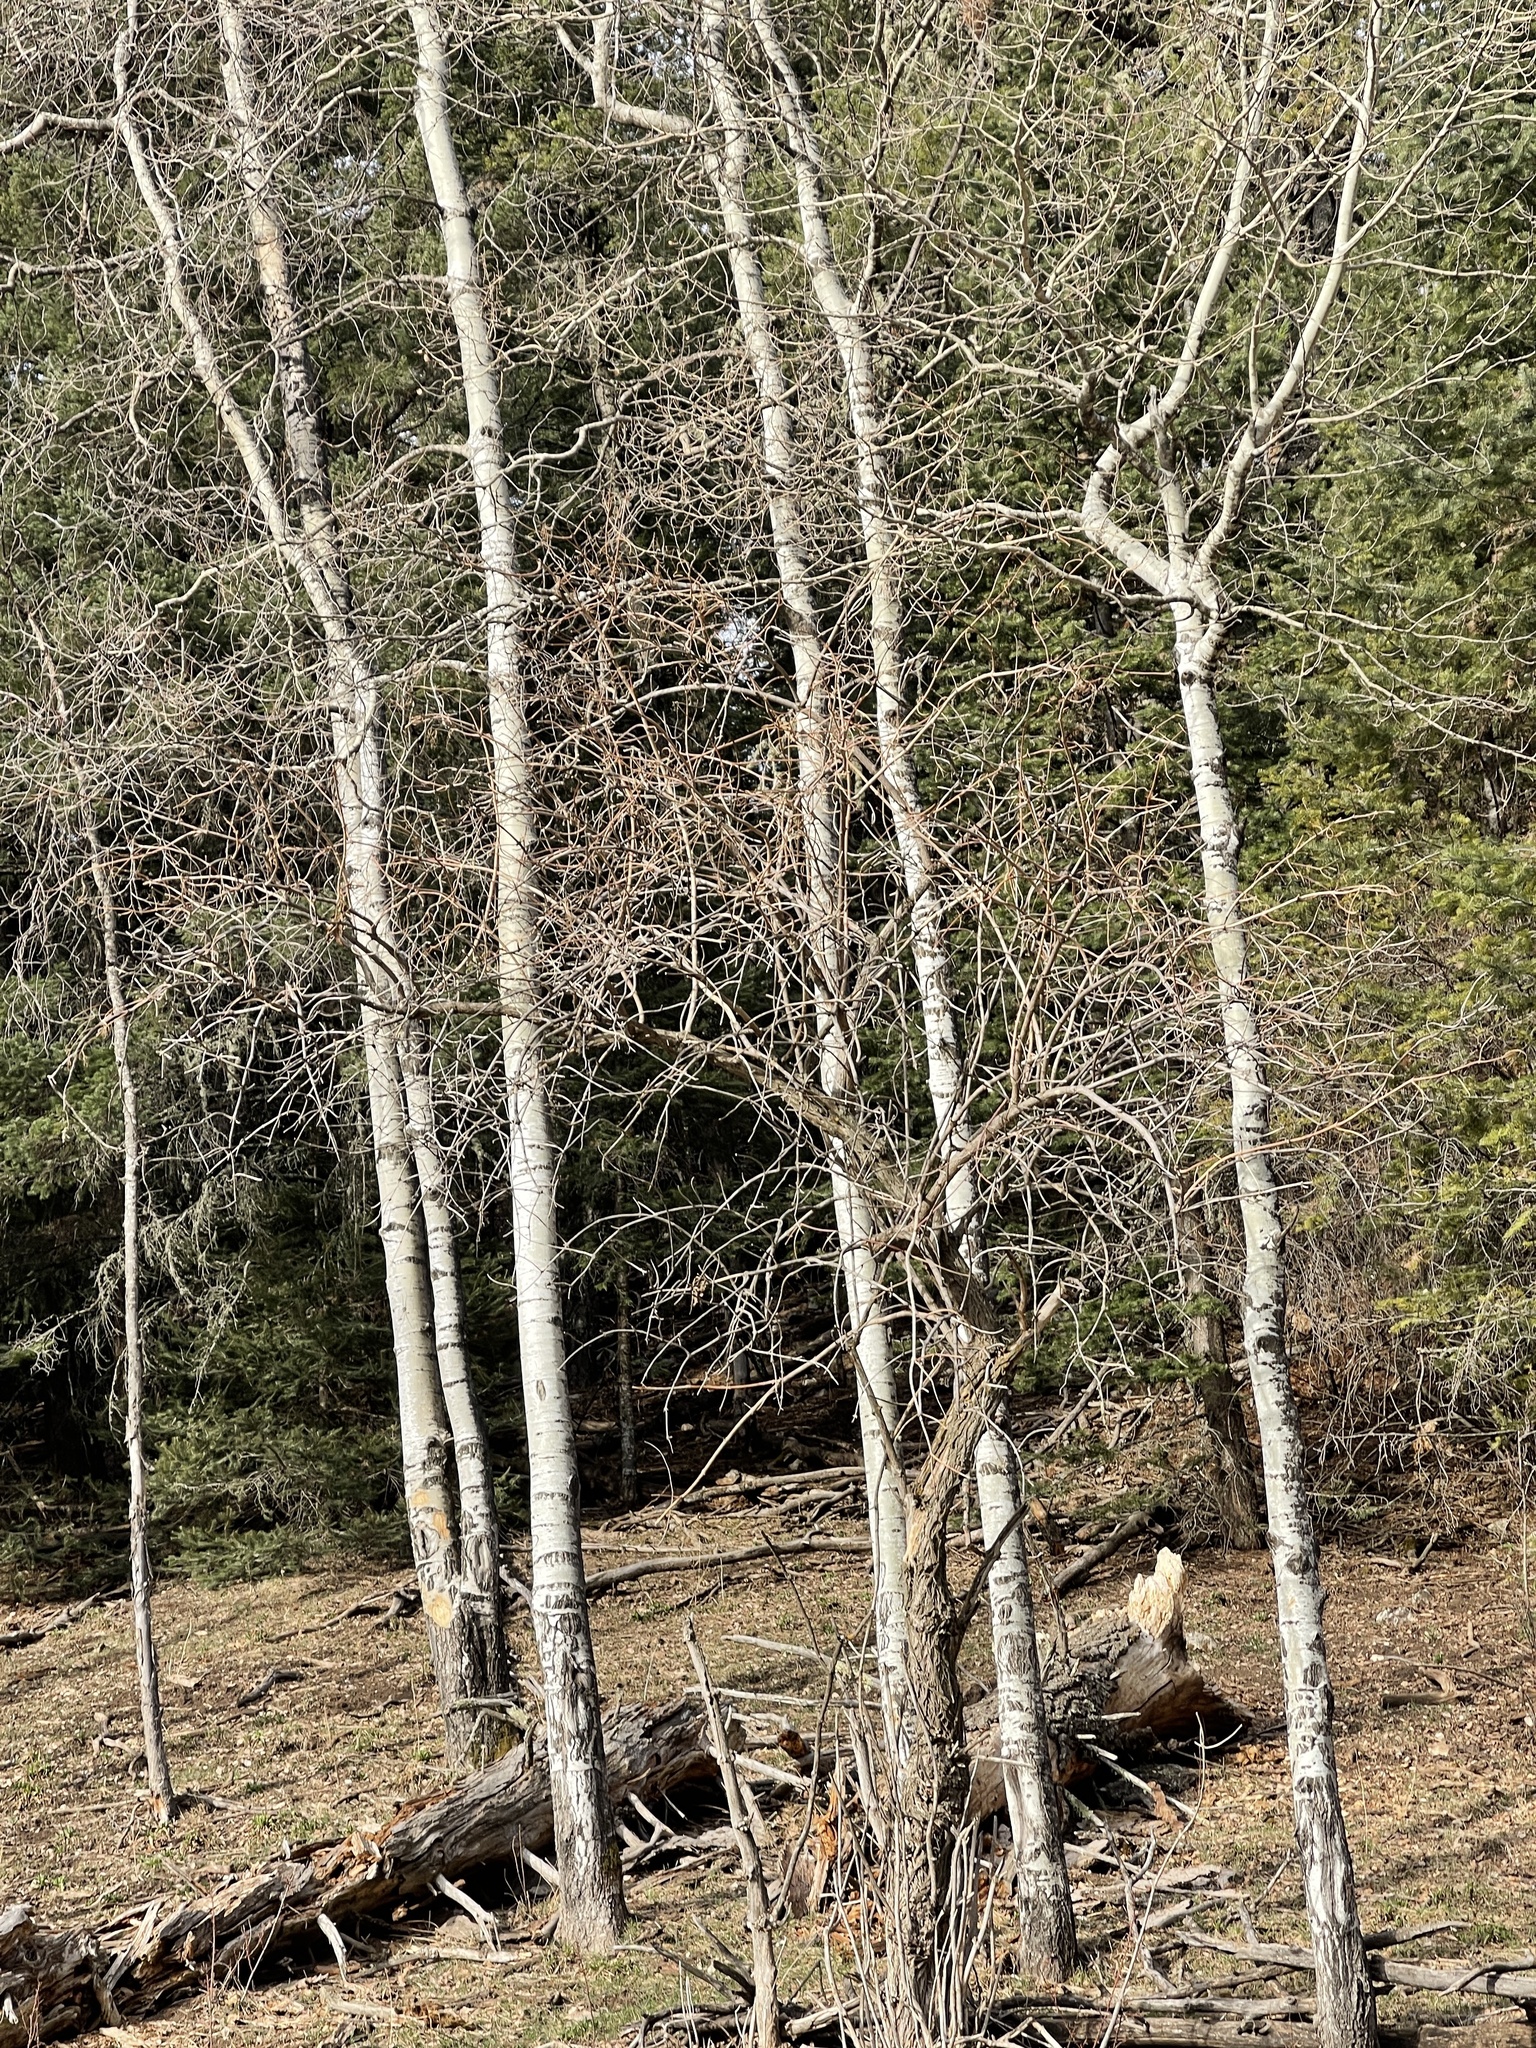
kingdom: Plantae
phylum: Tracheophyta
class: Magnoliopsida
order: Malpighiales
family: Salicaceae
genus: Populus
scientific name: Populus tremuloides
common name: Quaking aspen
